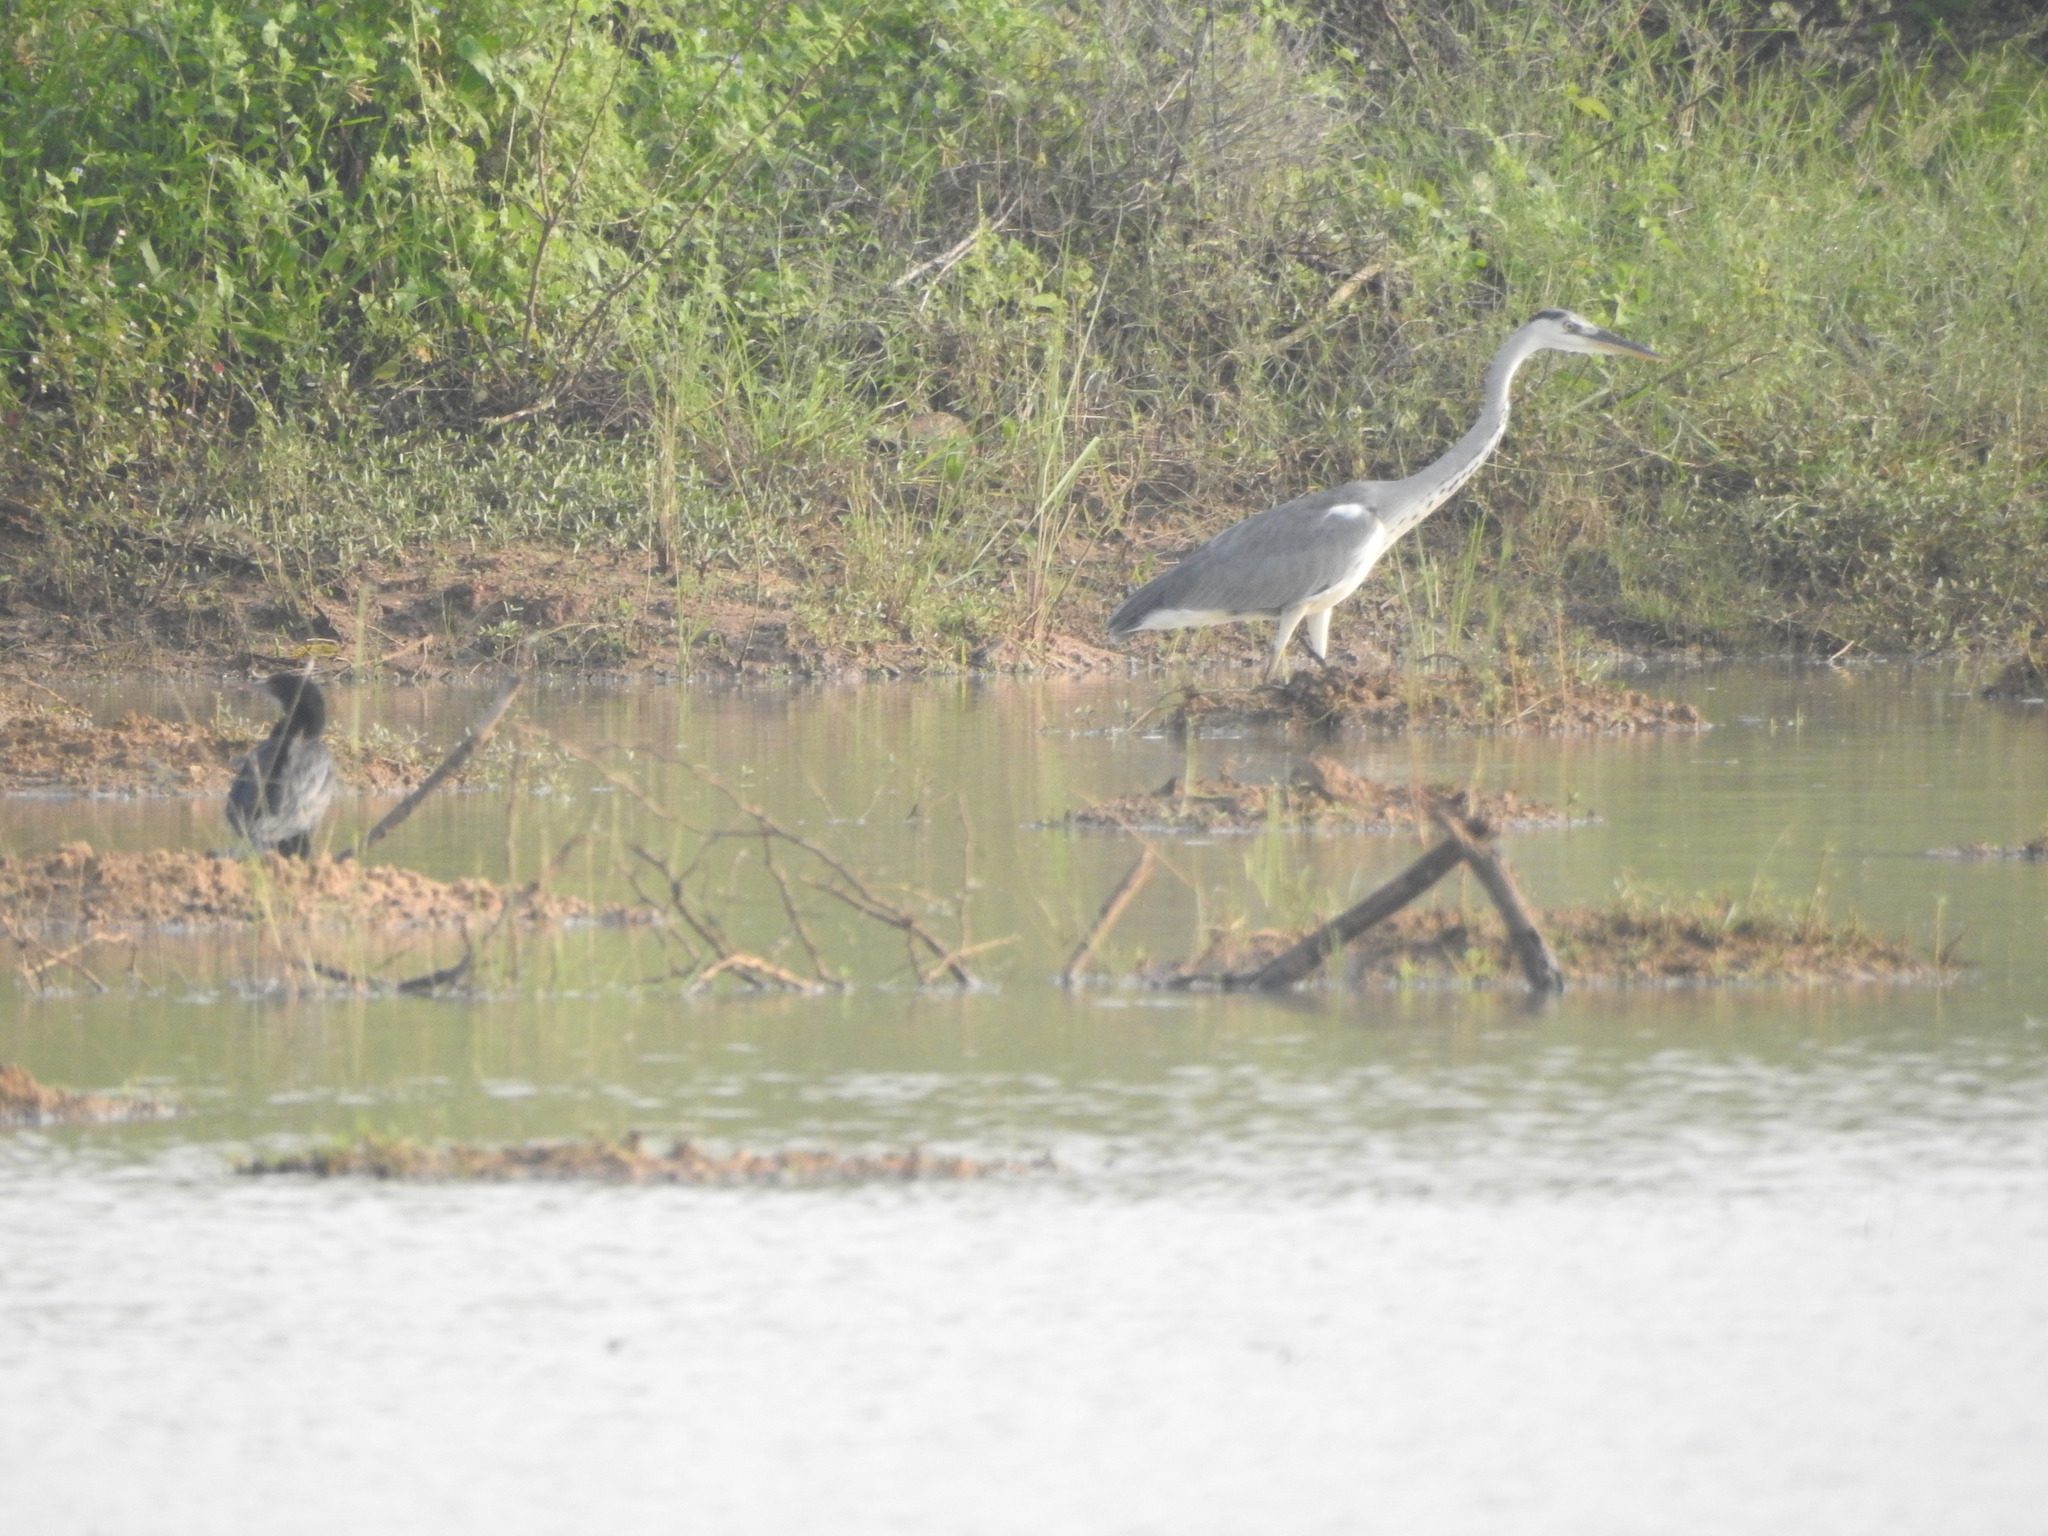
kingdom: Animalia
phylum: Chordata
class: Aves
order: Pelecaniformes
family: Ardeidae
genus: Ardea
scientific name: Ardea cinerea
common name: Grey heron
